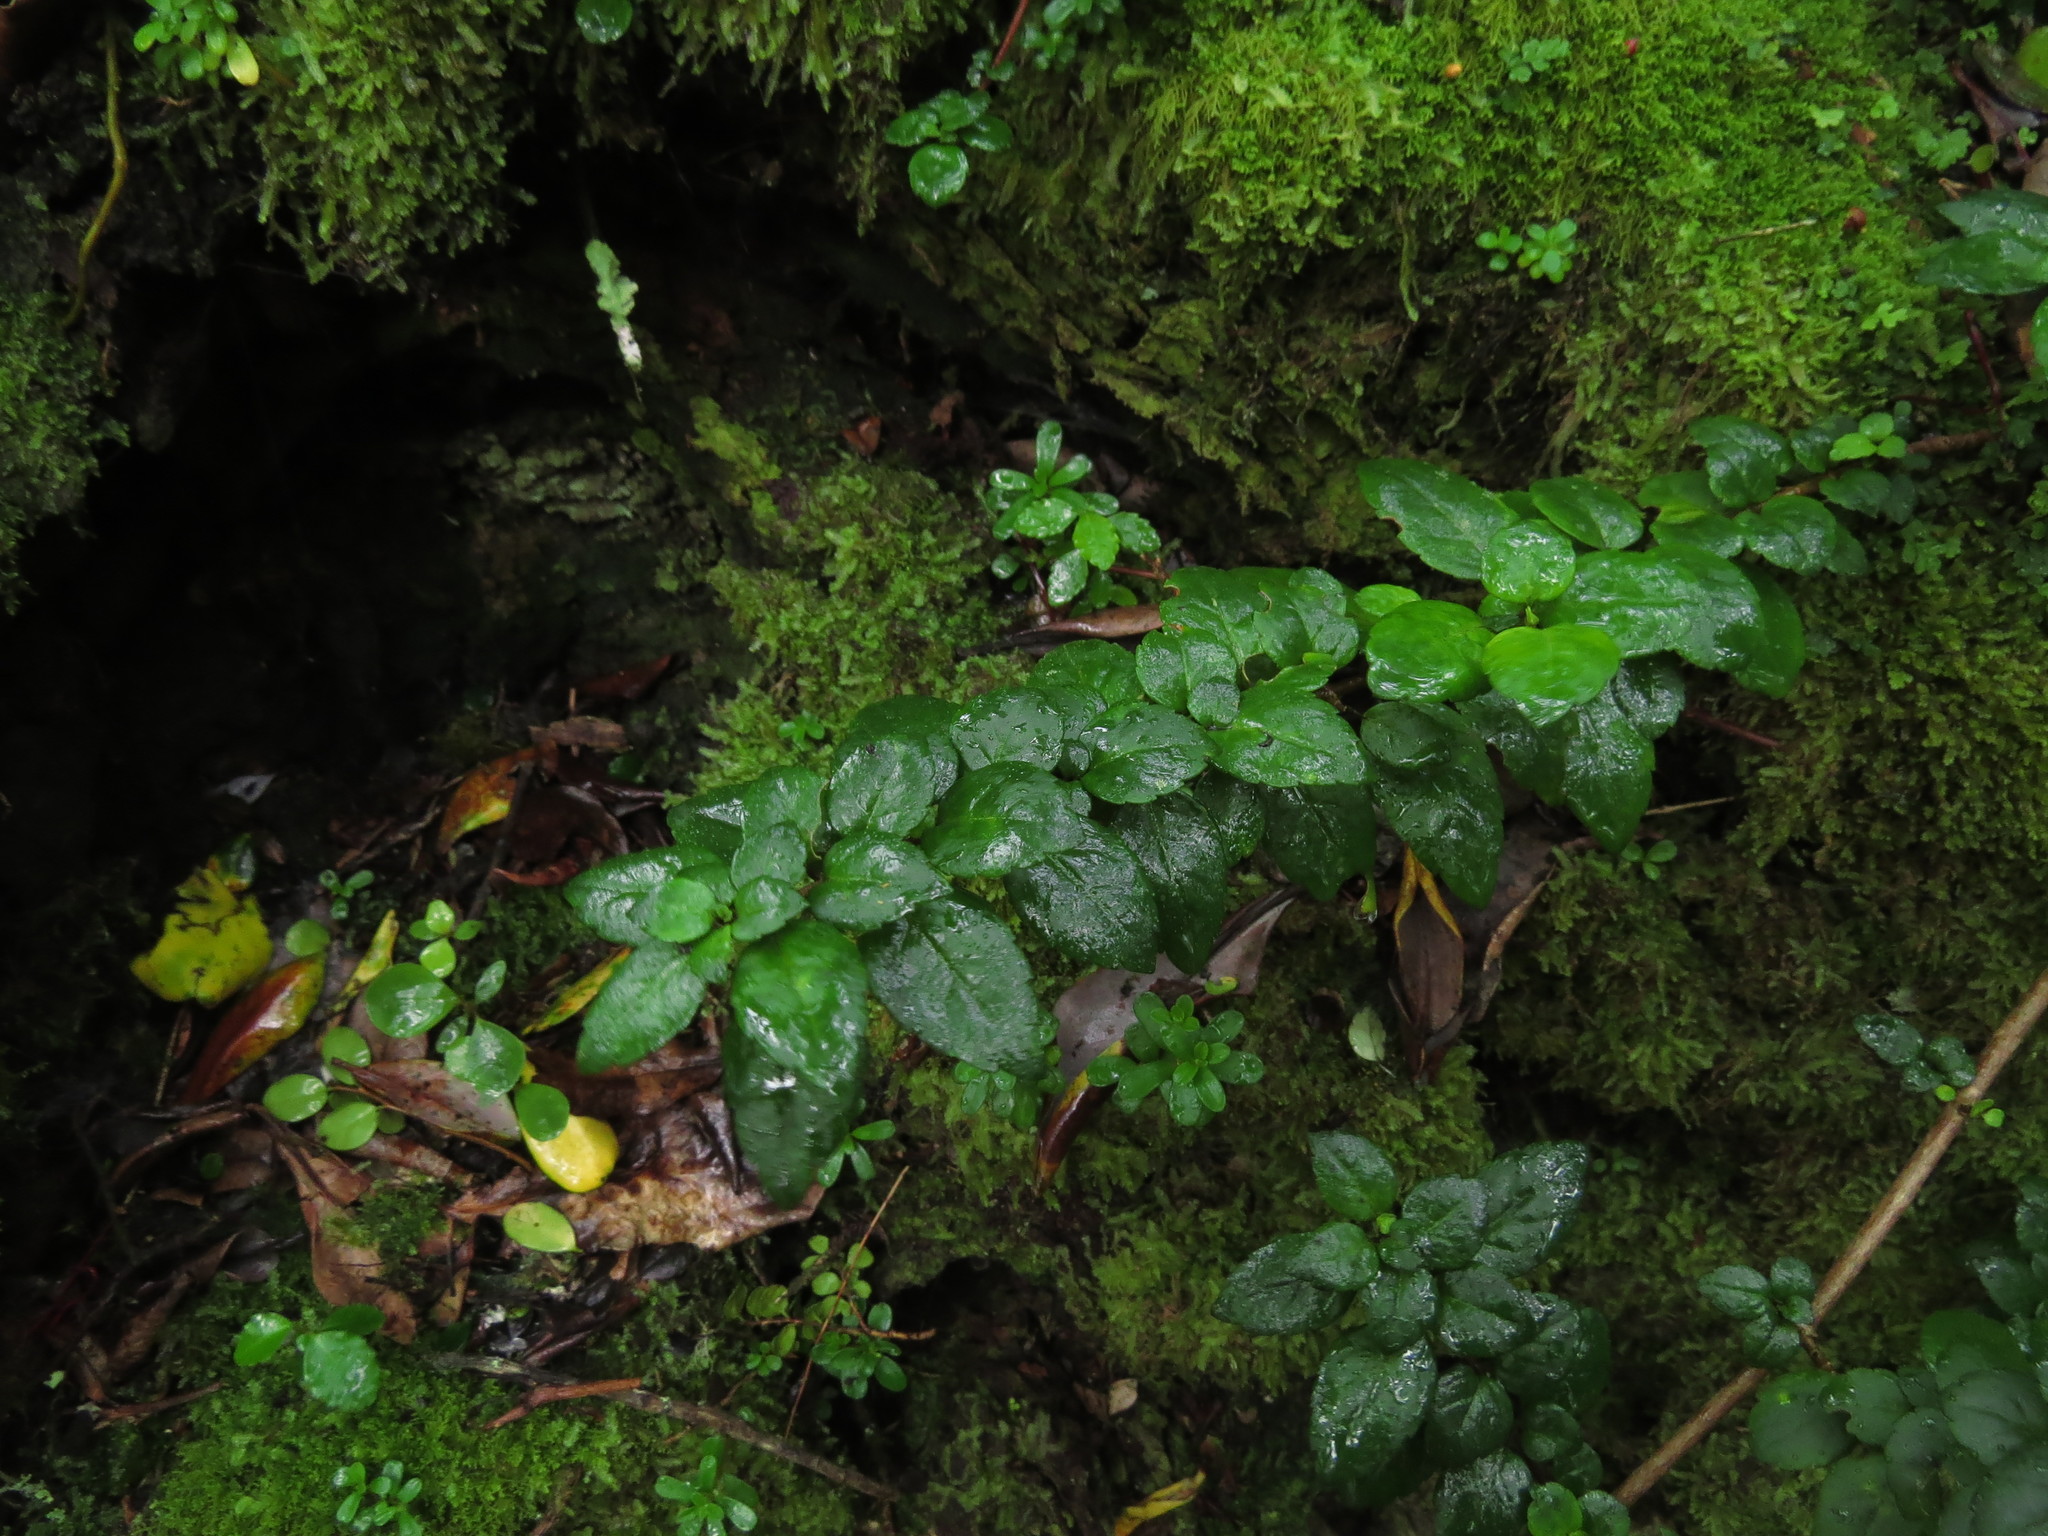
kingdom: Plantae
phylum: Tracheophyta
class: Magnoliopsida
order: Lamiales
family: Gesneriaceae
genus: Mitraria
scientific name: Mitraria coccinea
